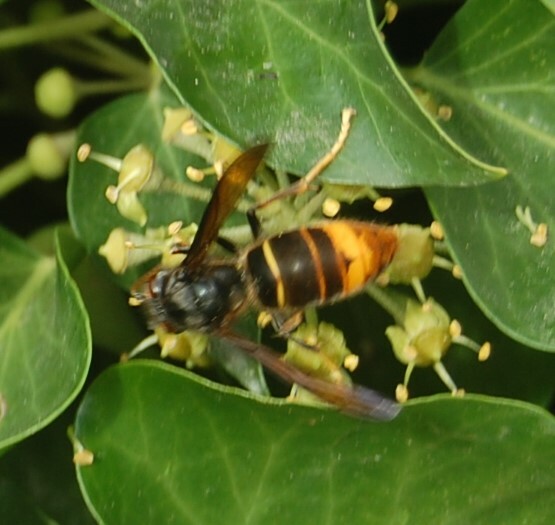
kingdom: Animalia
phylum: Arthropoda
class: Insecta
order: Hymenoptera
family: Vespidae
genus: Vespa
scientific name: Vespa velutina
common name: Asian hornet
